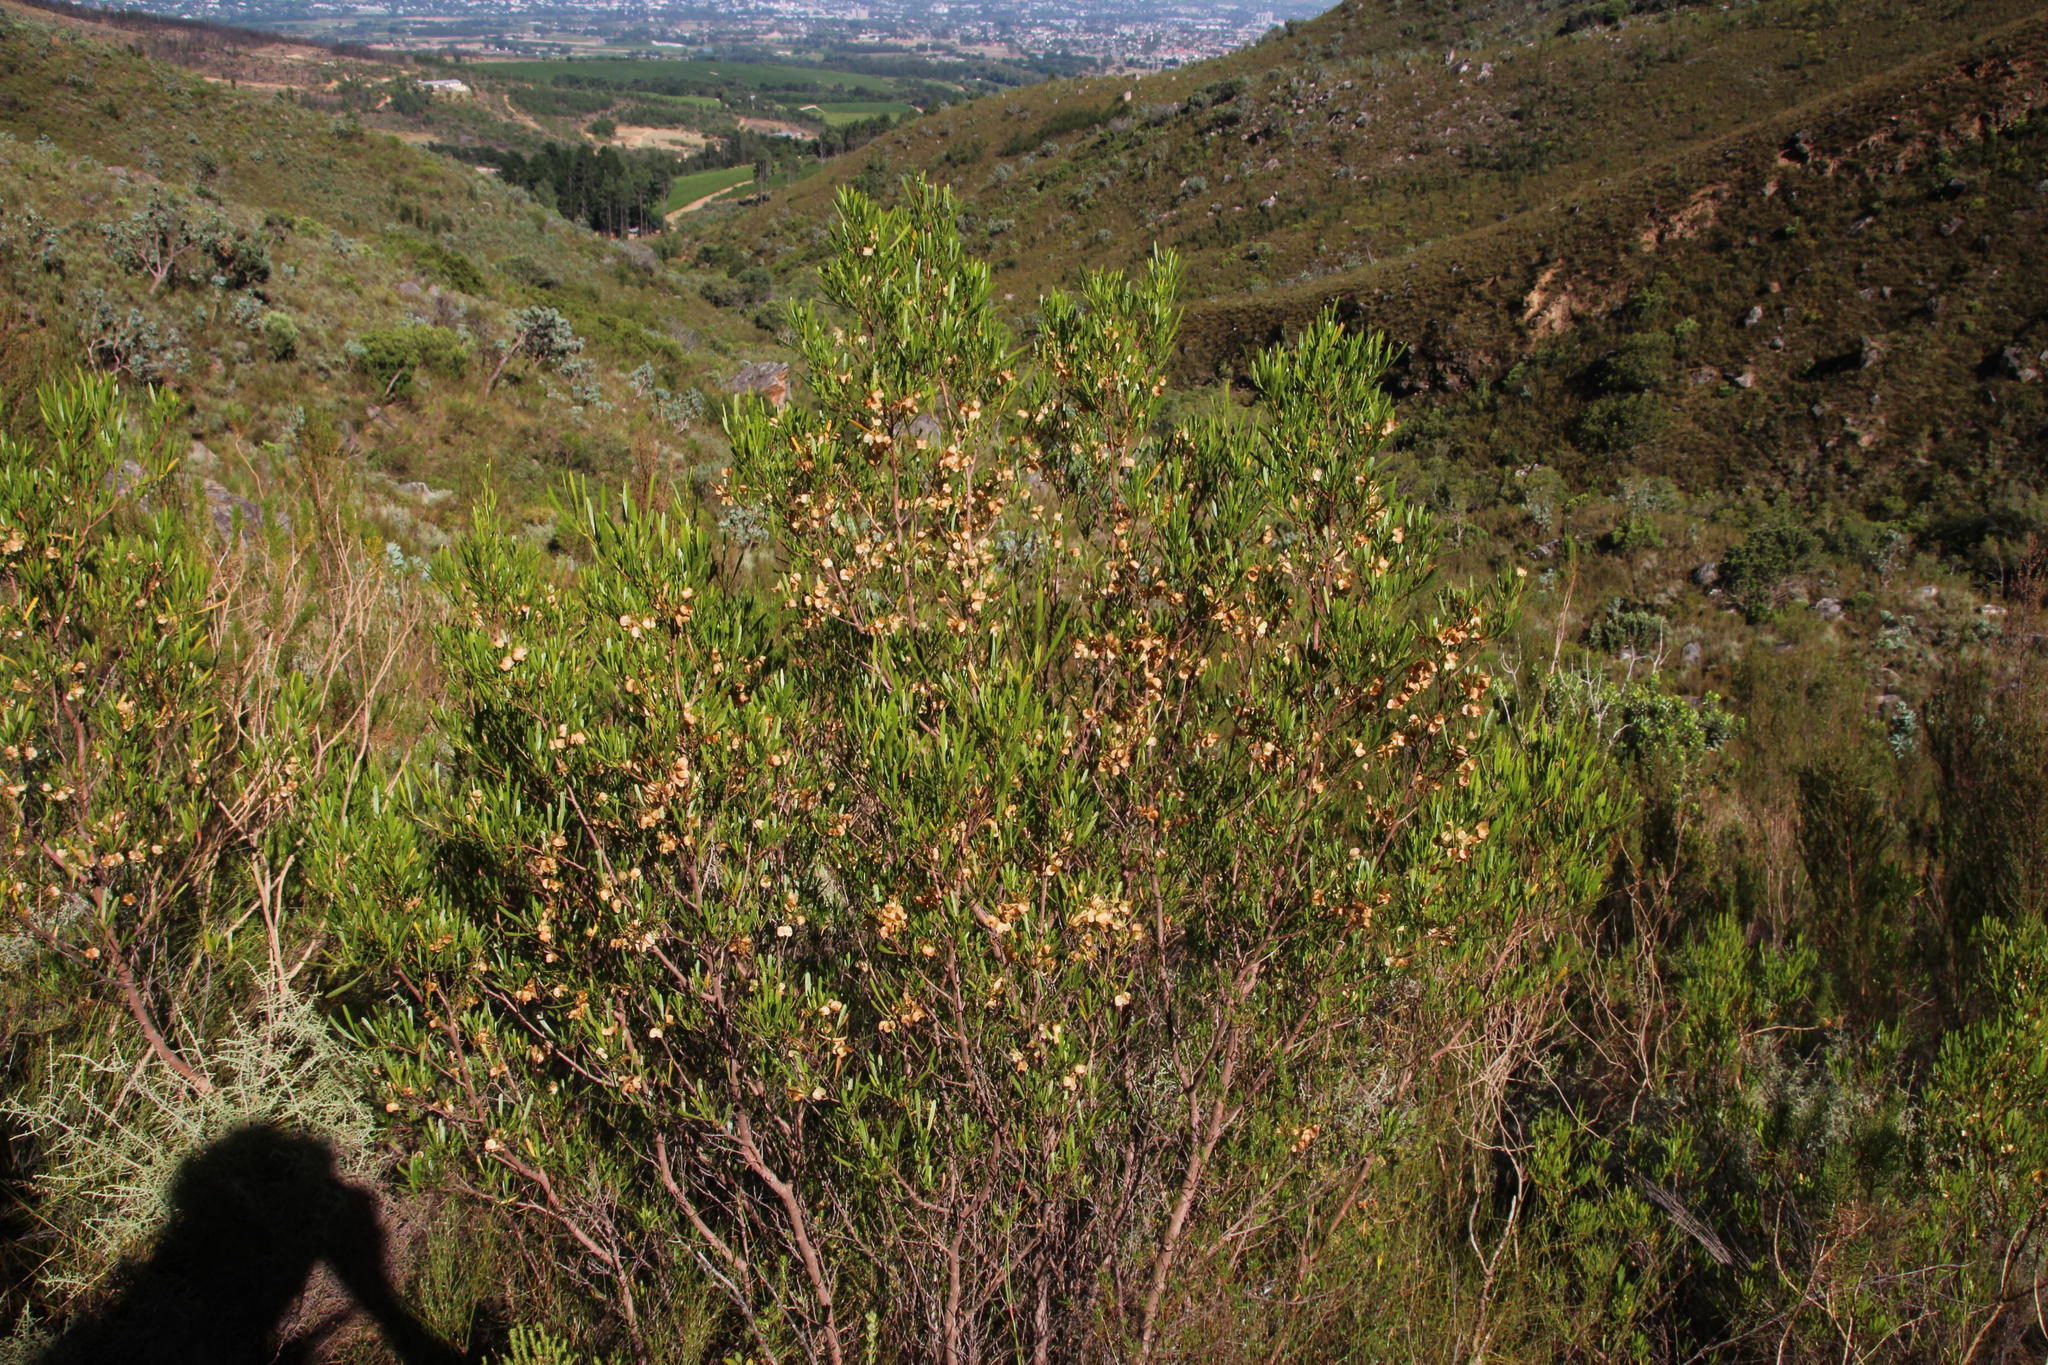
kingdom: Plantae
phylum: Tracheophyta
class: Magnoliopsida
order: Sapindales
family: Sapindaceae
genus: Dodonaea
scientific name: Dodonaea viscosa
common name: Hopbush
